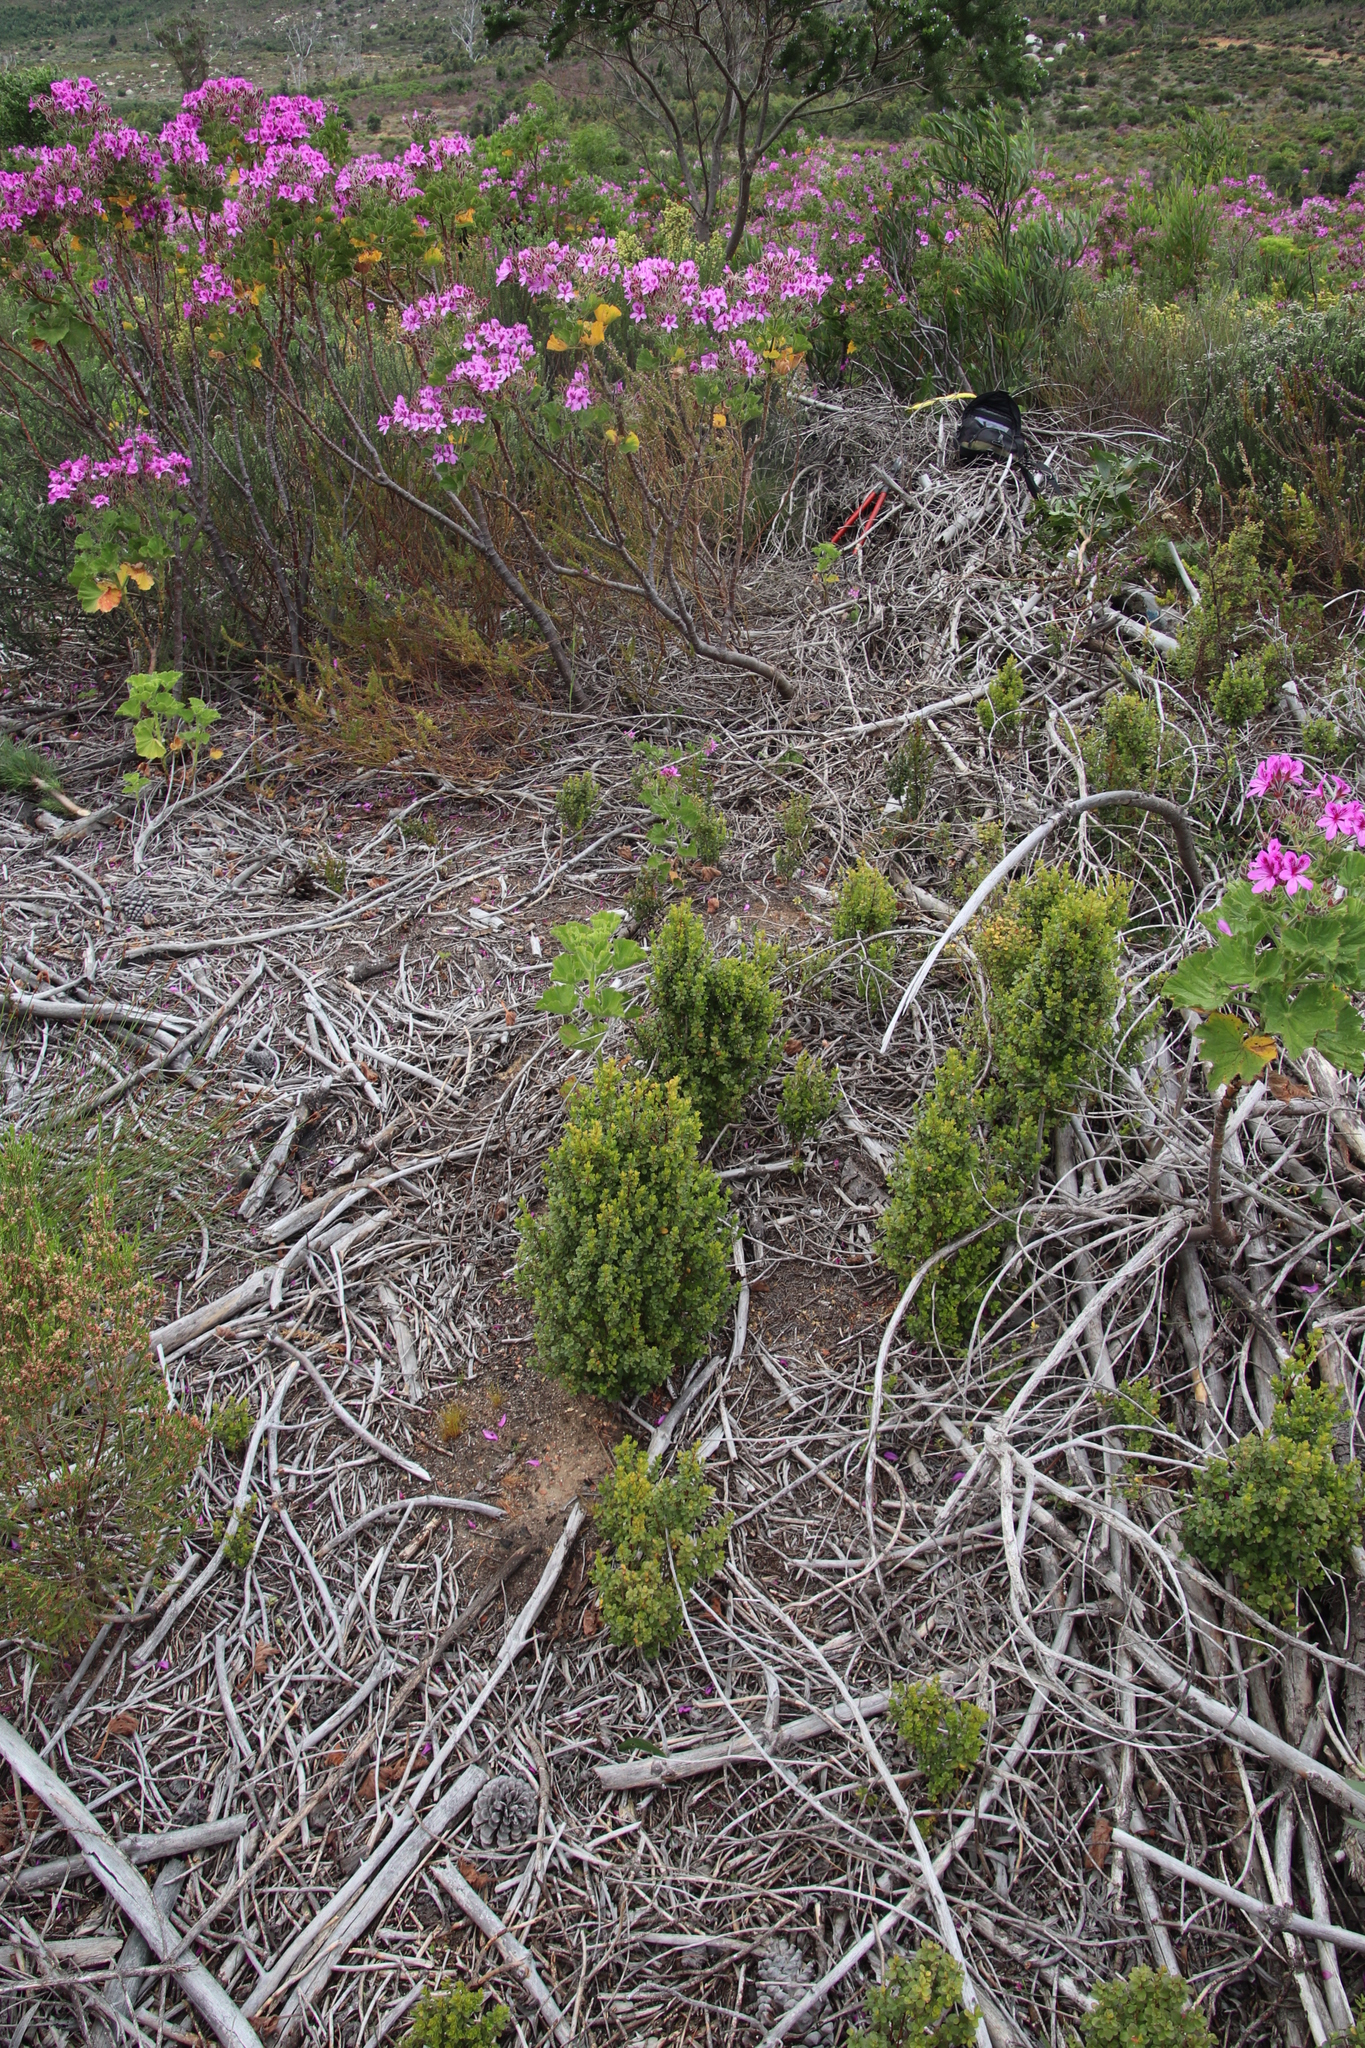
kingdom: Plantae
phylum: Tracheophyta
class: Magnoliopsida
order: Ericales
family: Primulaceae
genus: Myrsine
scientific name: Myrsine africana
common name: African-boxwood
